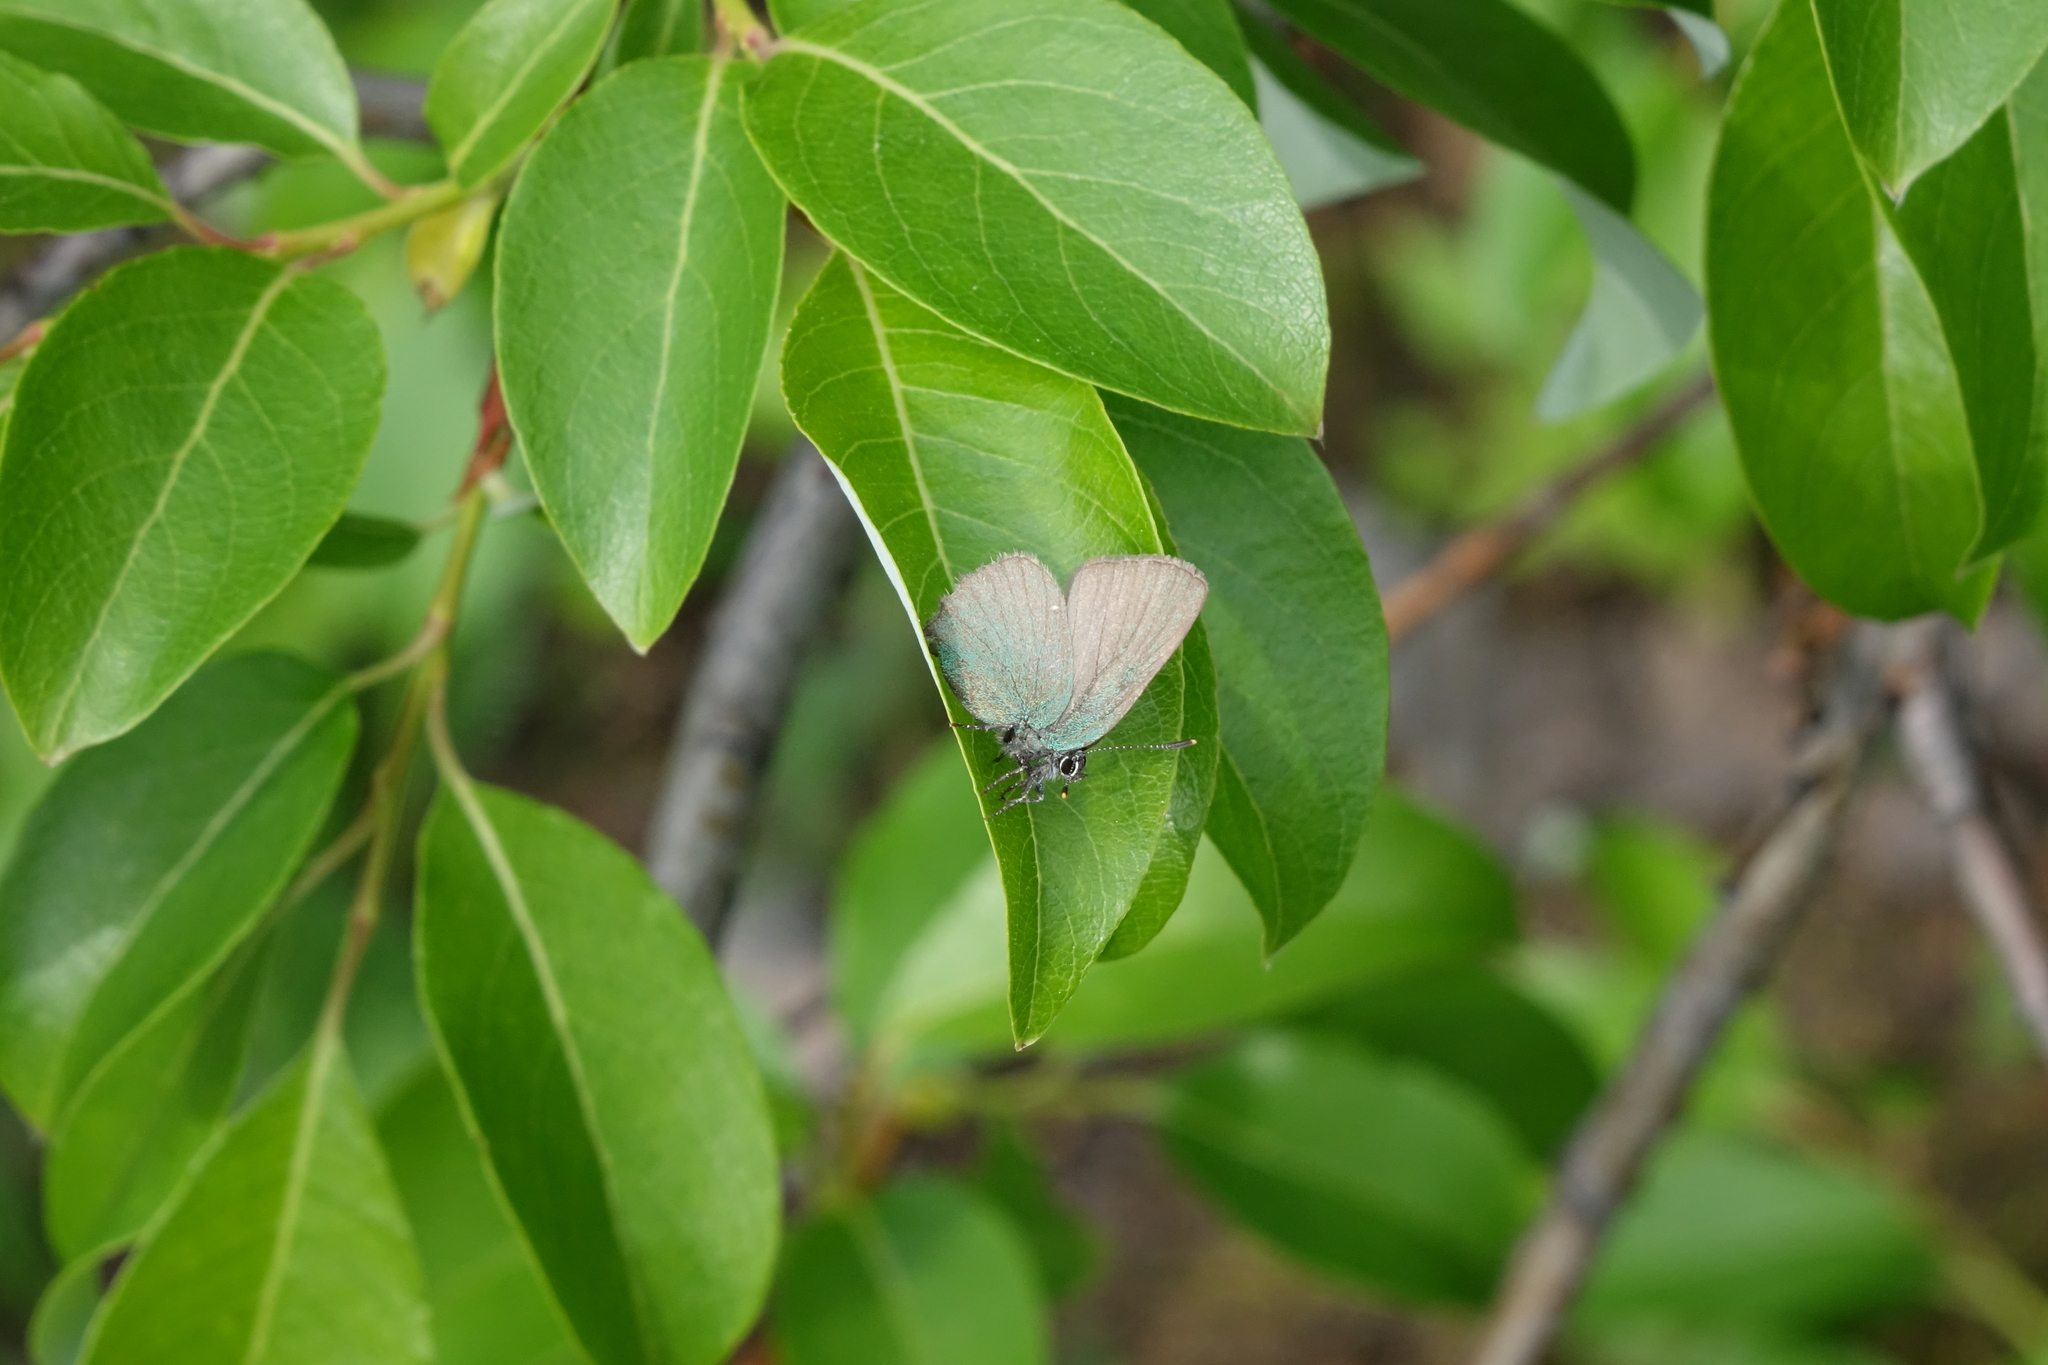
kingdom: Animalia
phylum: Arthropoda
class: Insecta
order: Lepidoptera
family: Lycaenidae
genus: Callophrys
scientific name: Callophrys rubi
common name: Green hairstreak
